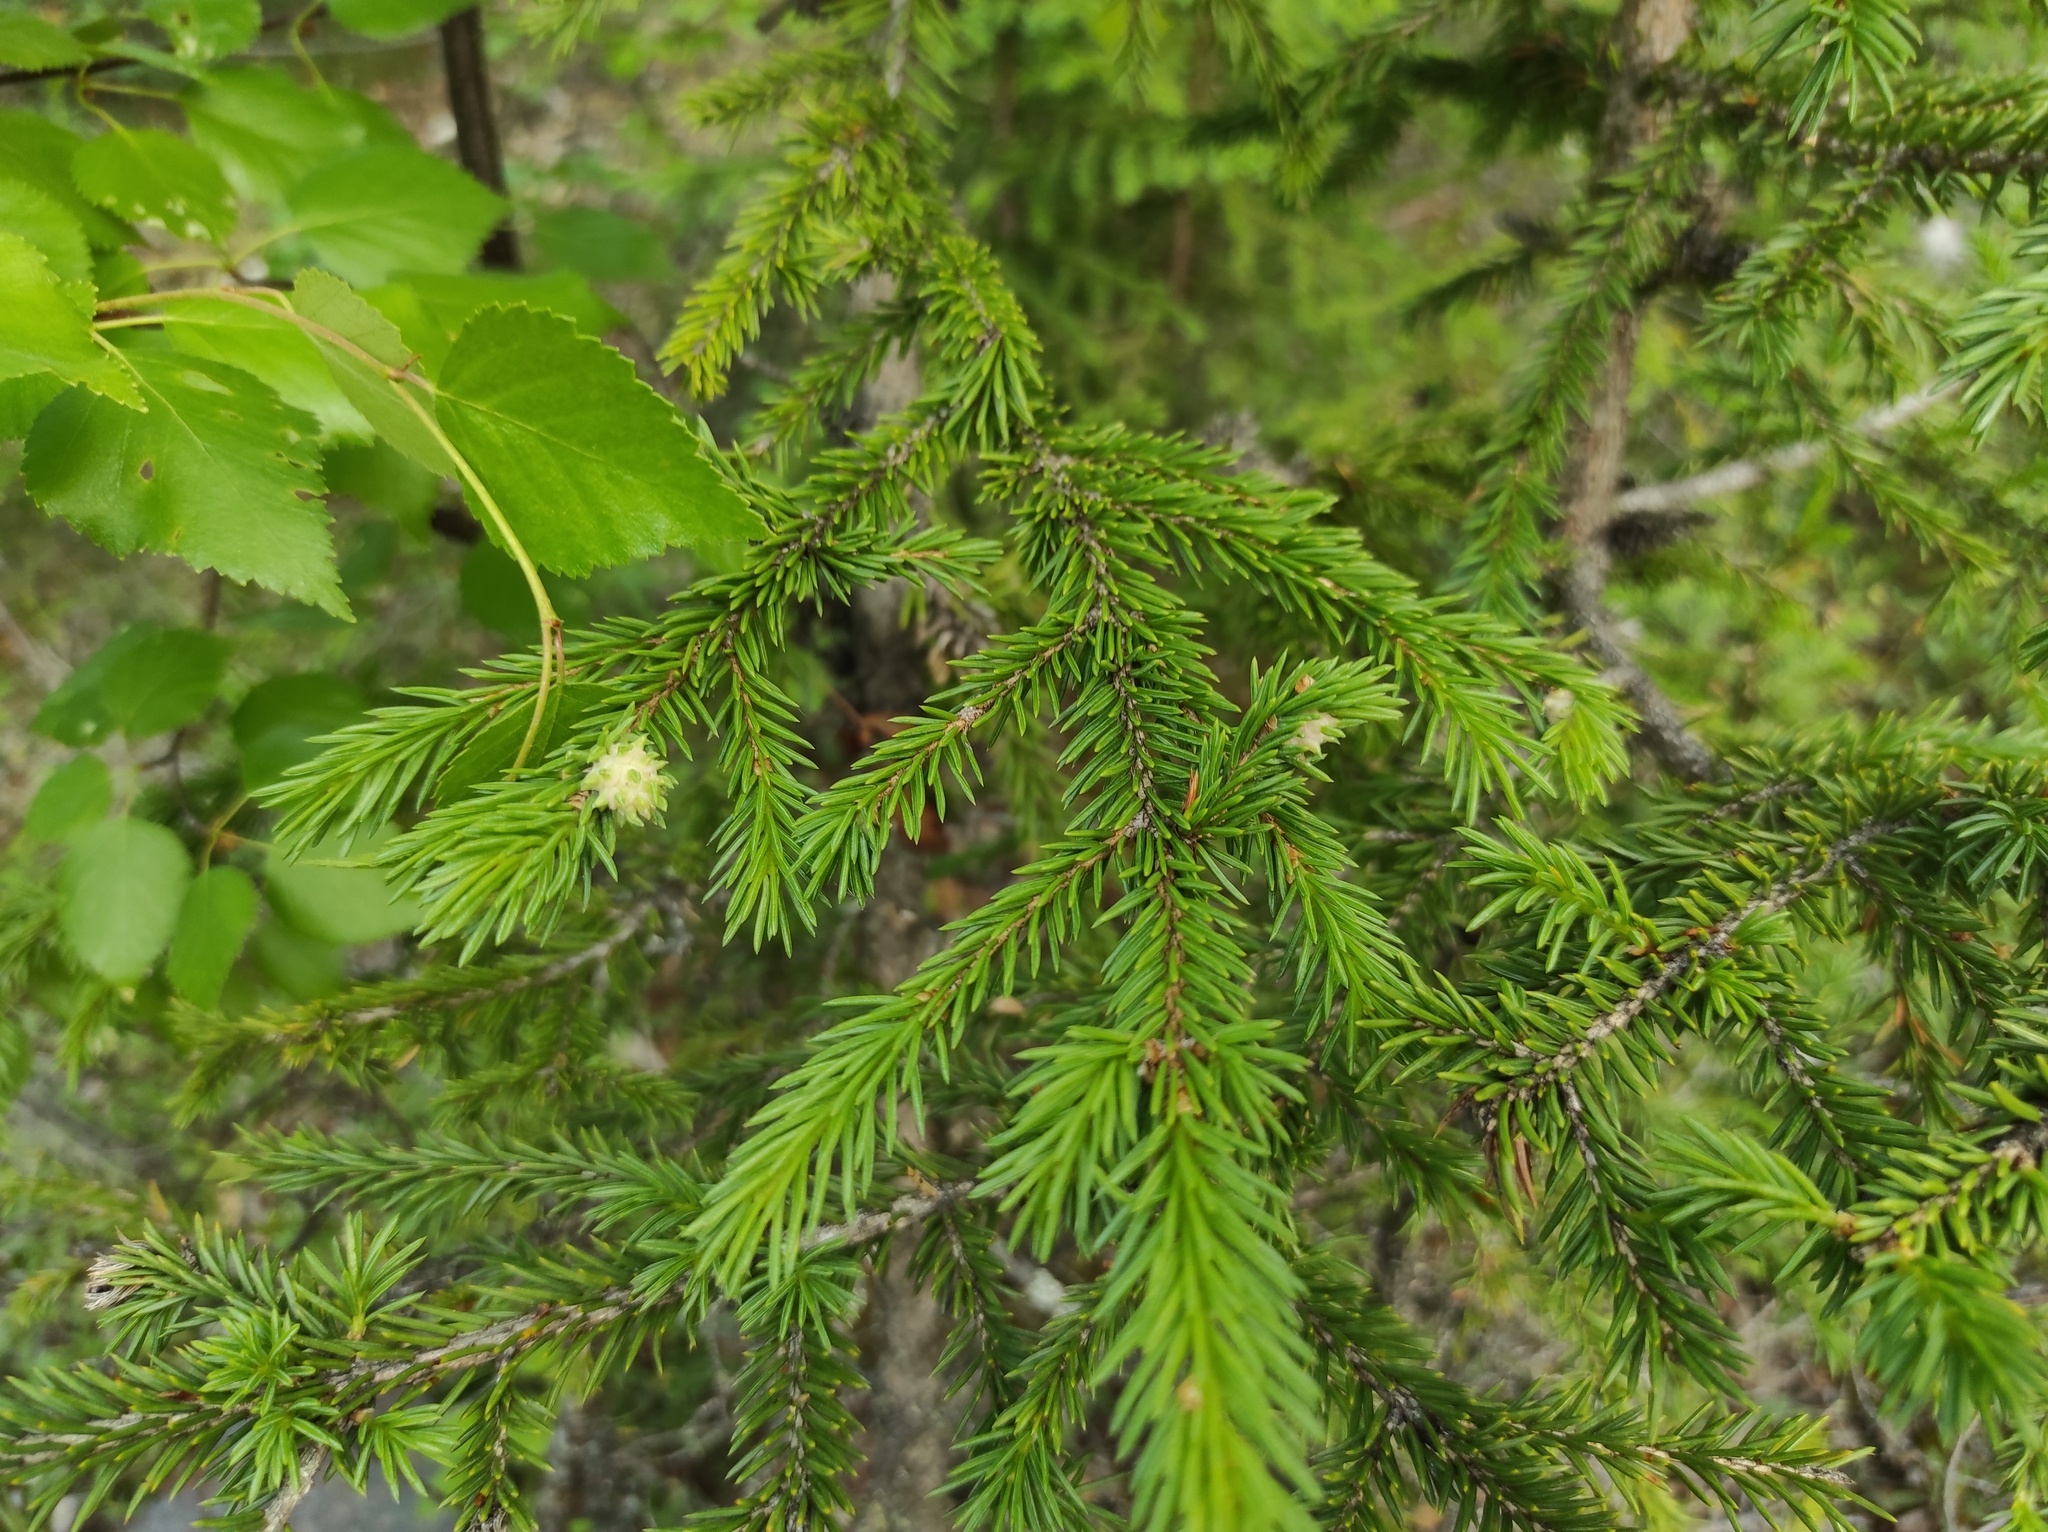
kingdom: Plantae
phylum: Tracheophyta
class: Pinopsida
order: Pinales
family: Pinaceae
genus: Picea
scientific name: Picea obovata
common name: Siberian spruce
